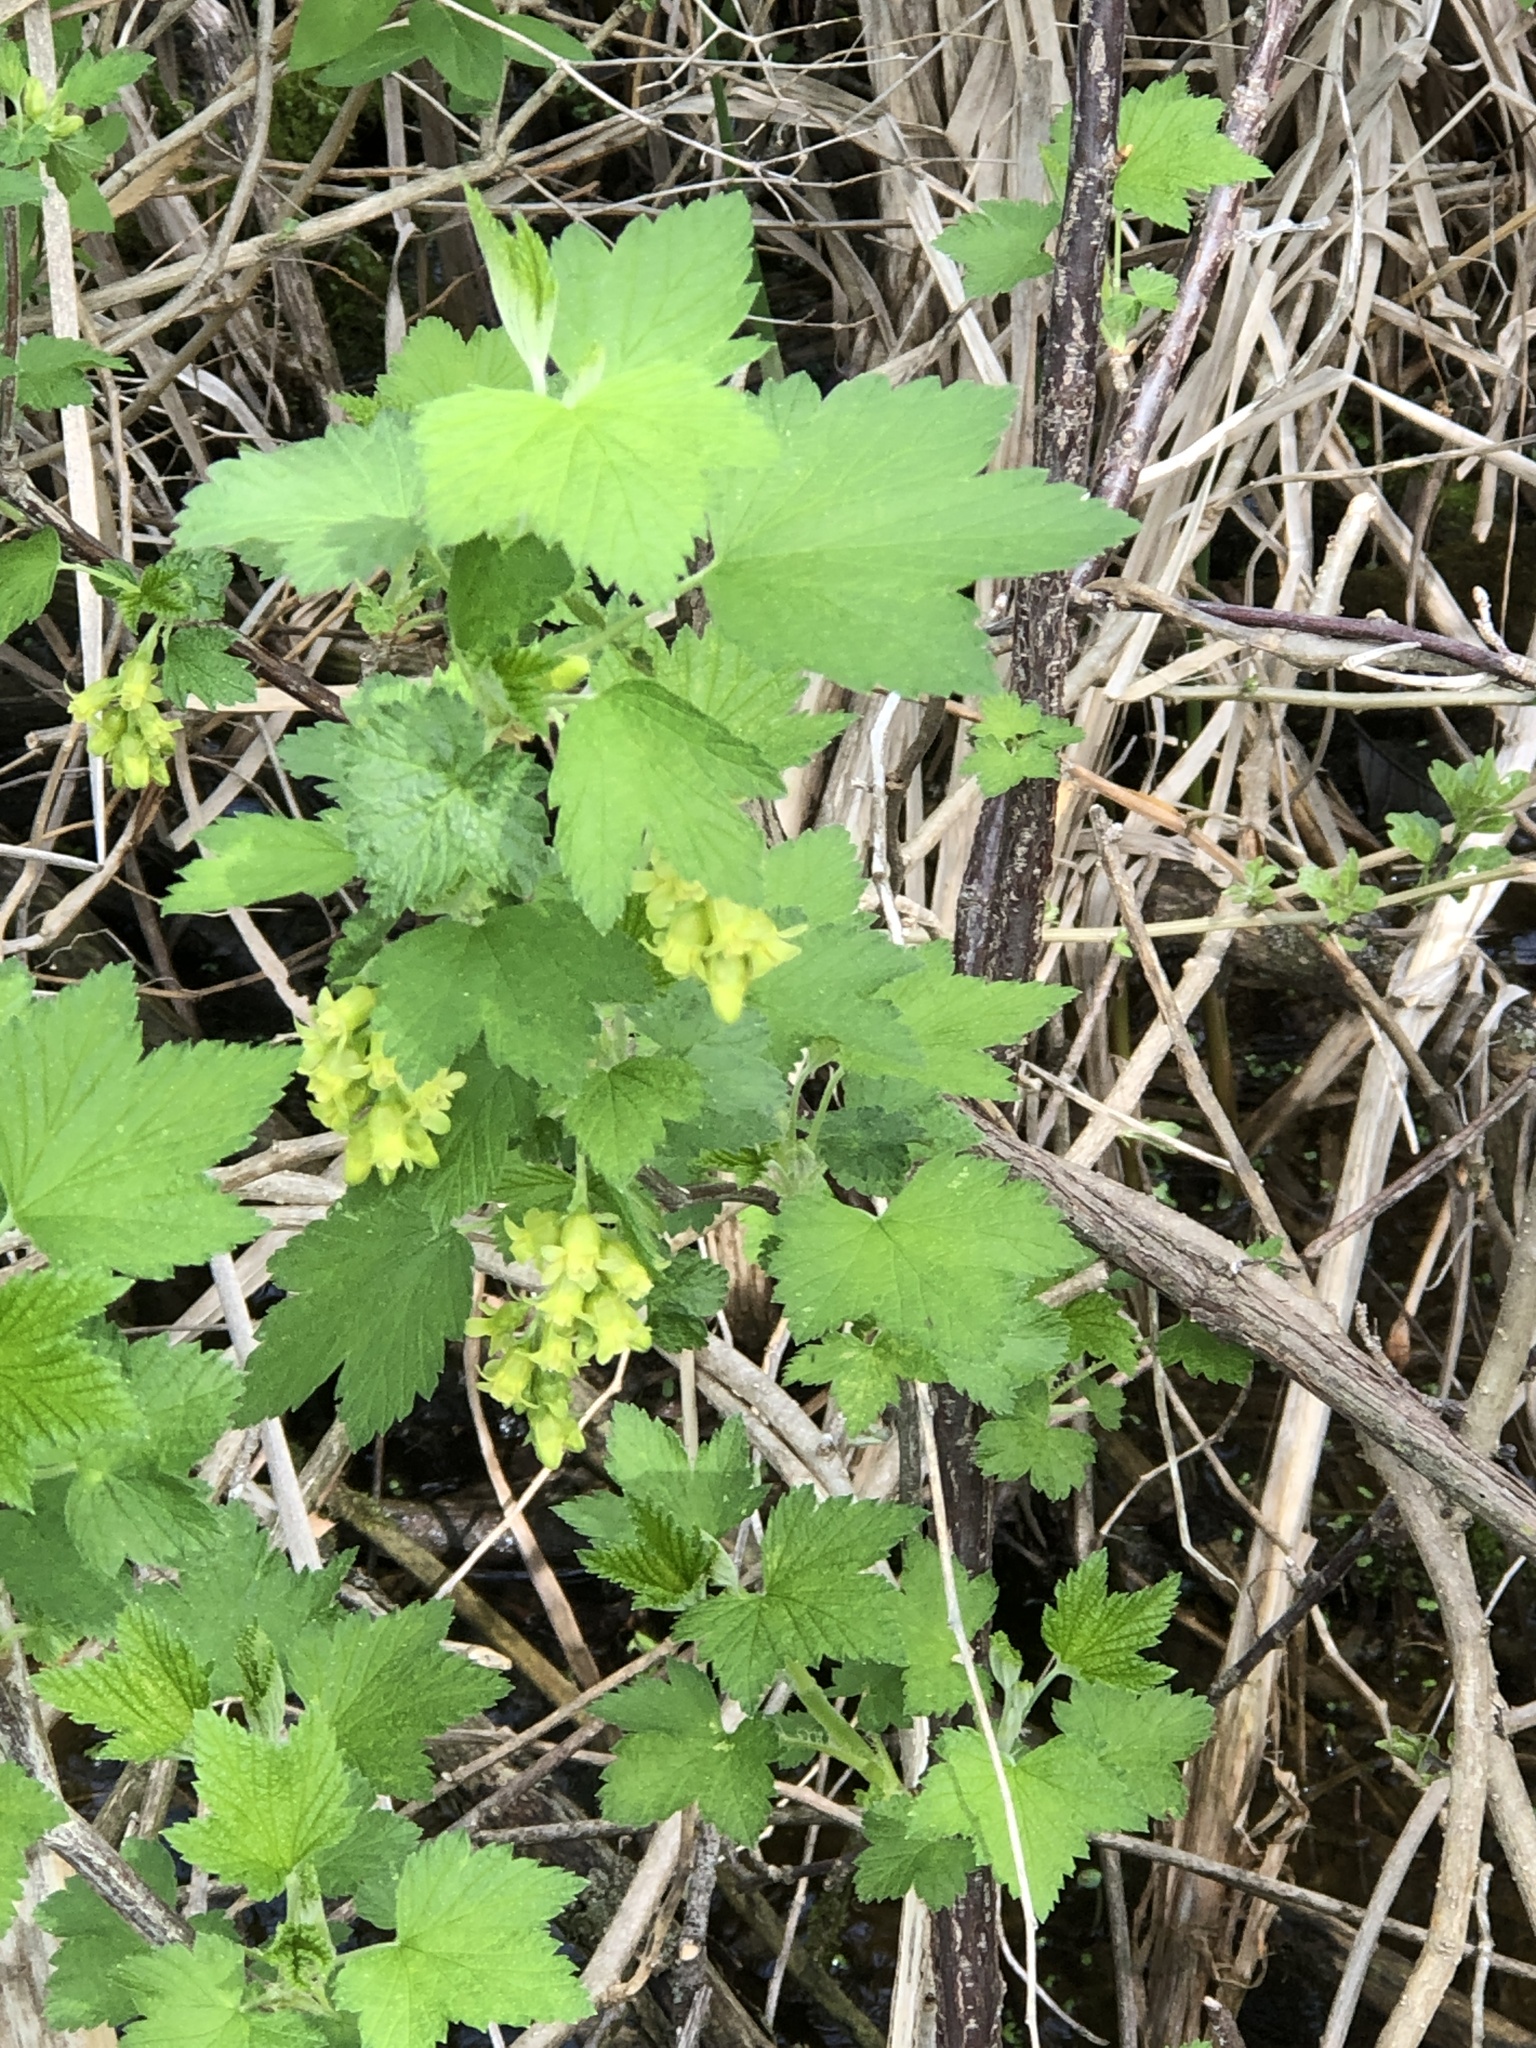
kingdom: Plantae
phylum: Tracheophyta
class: Magnoliopsida
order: Saxifragales
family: Grossulariaceae
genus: Ribes
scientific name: Ribes americanum
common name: American black currant
